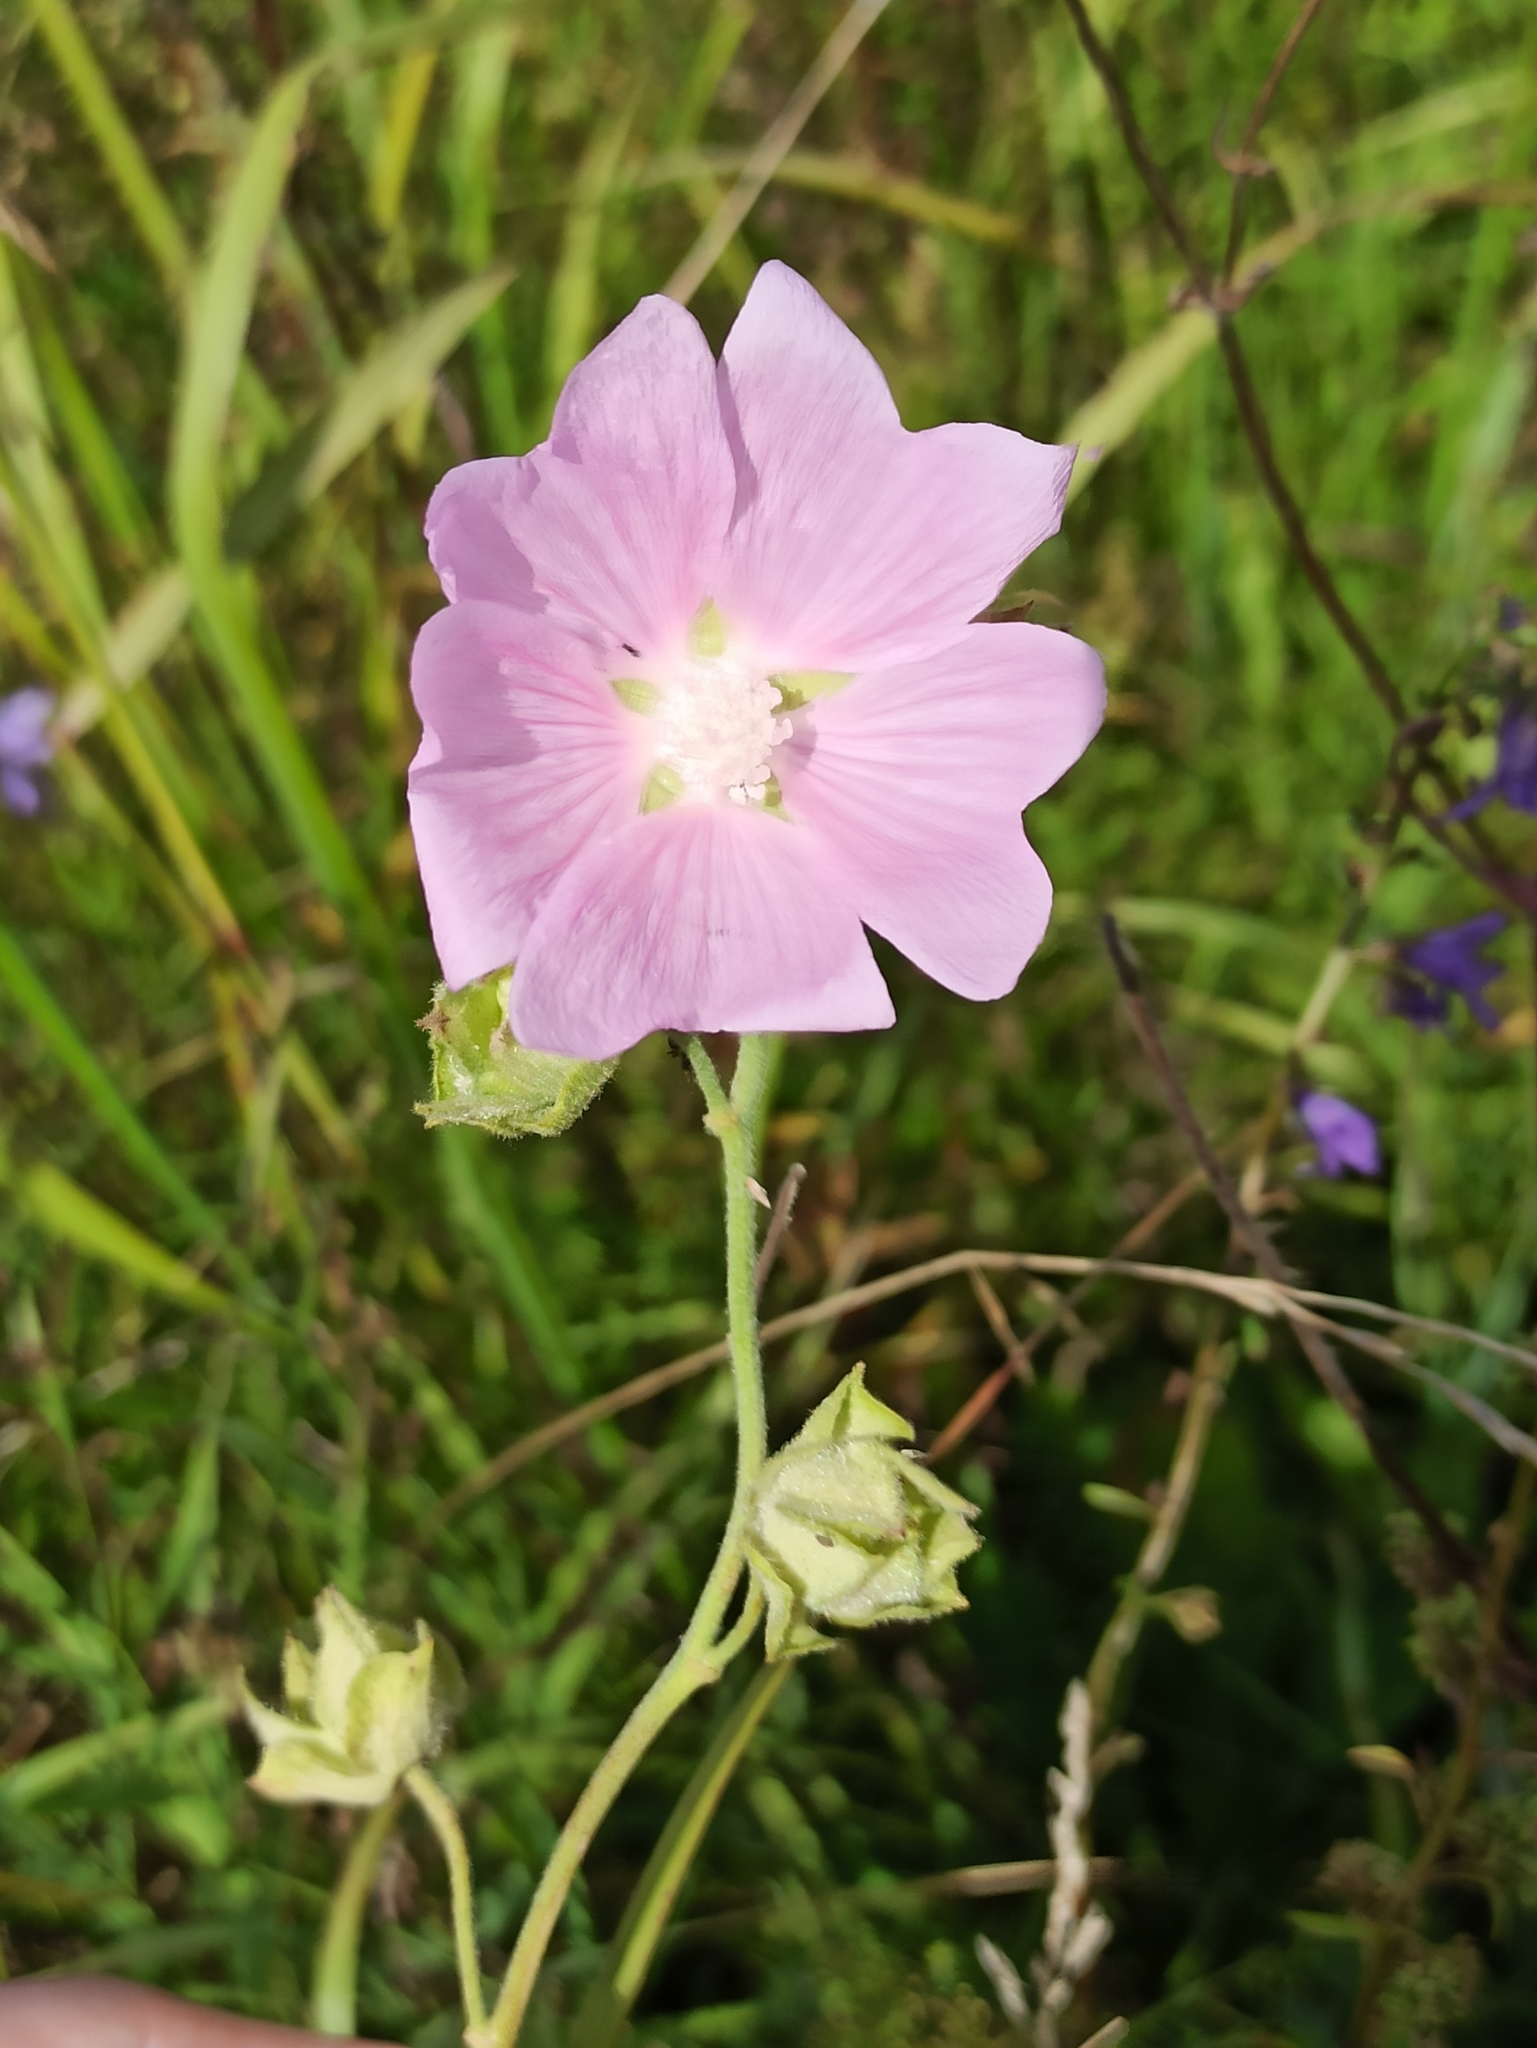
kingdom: Plantae
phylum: Tracheophyta
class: Magnoliopsida
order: Malvales
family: Malvaceae
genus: Malva
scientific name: Malva thuringiaca
